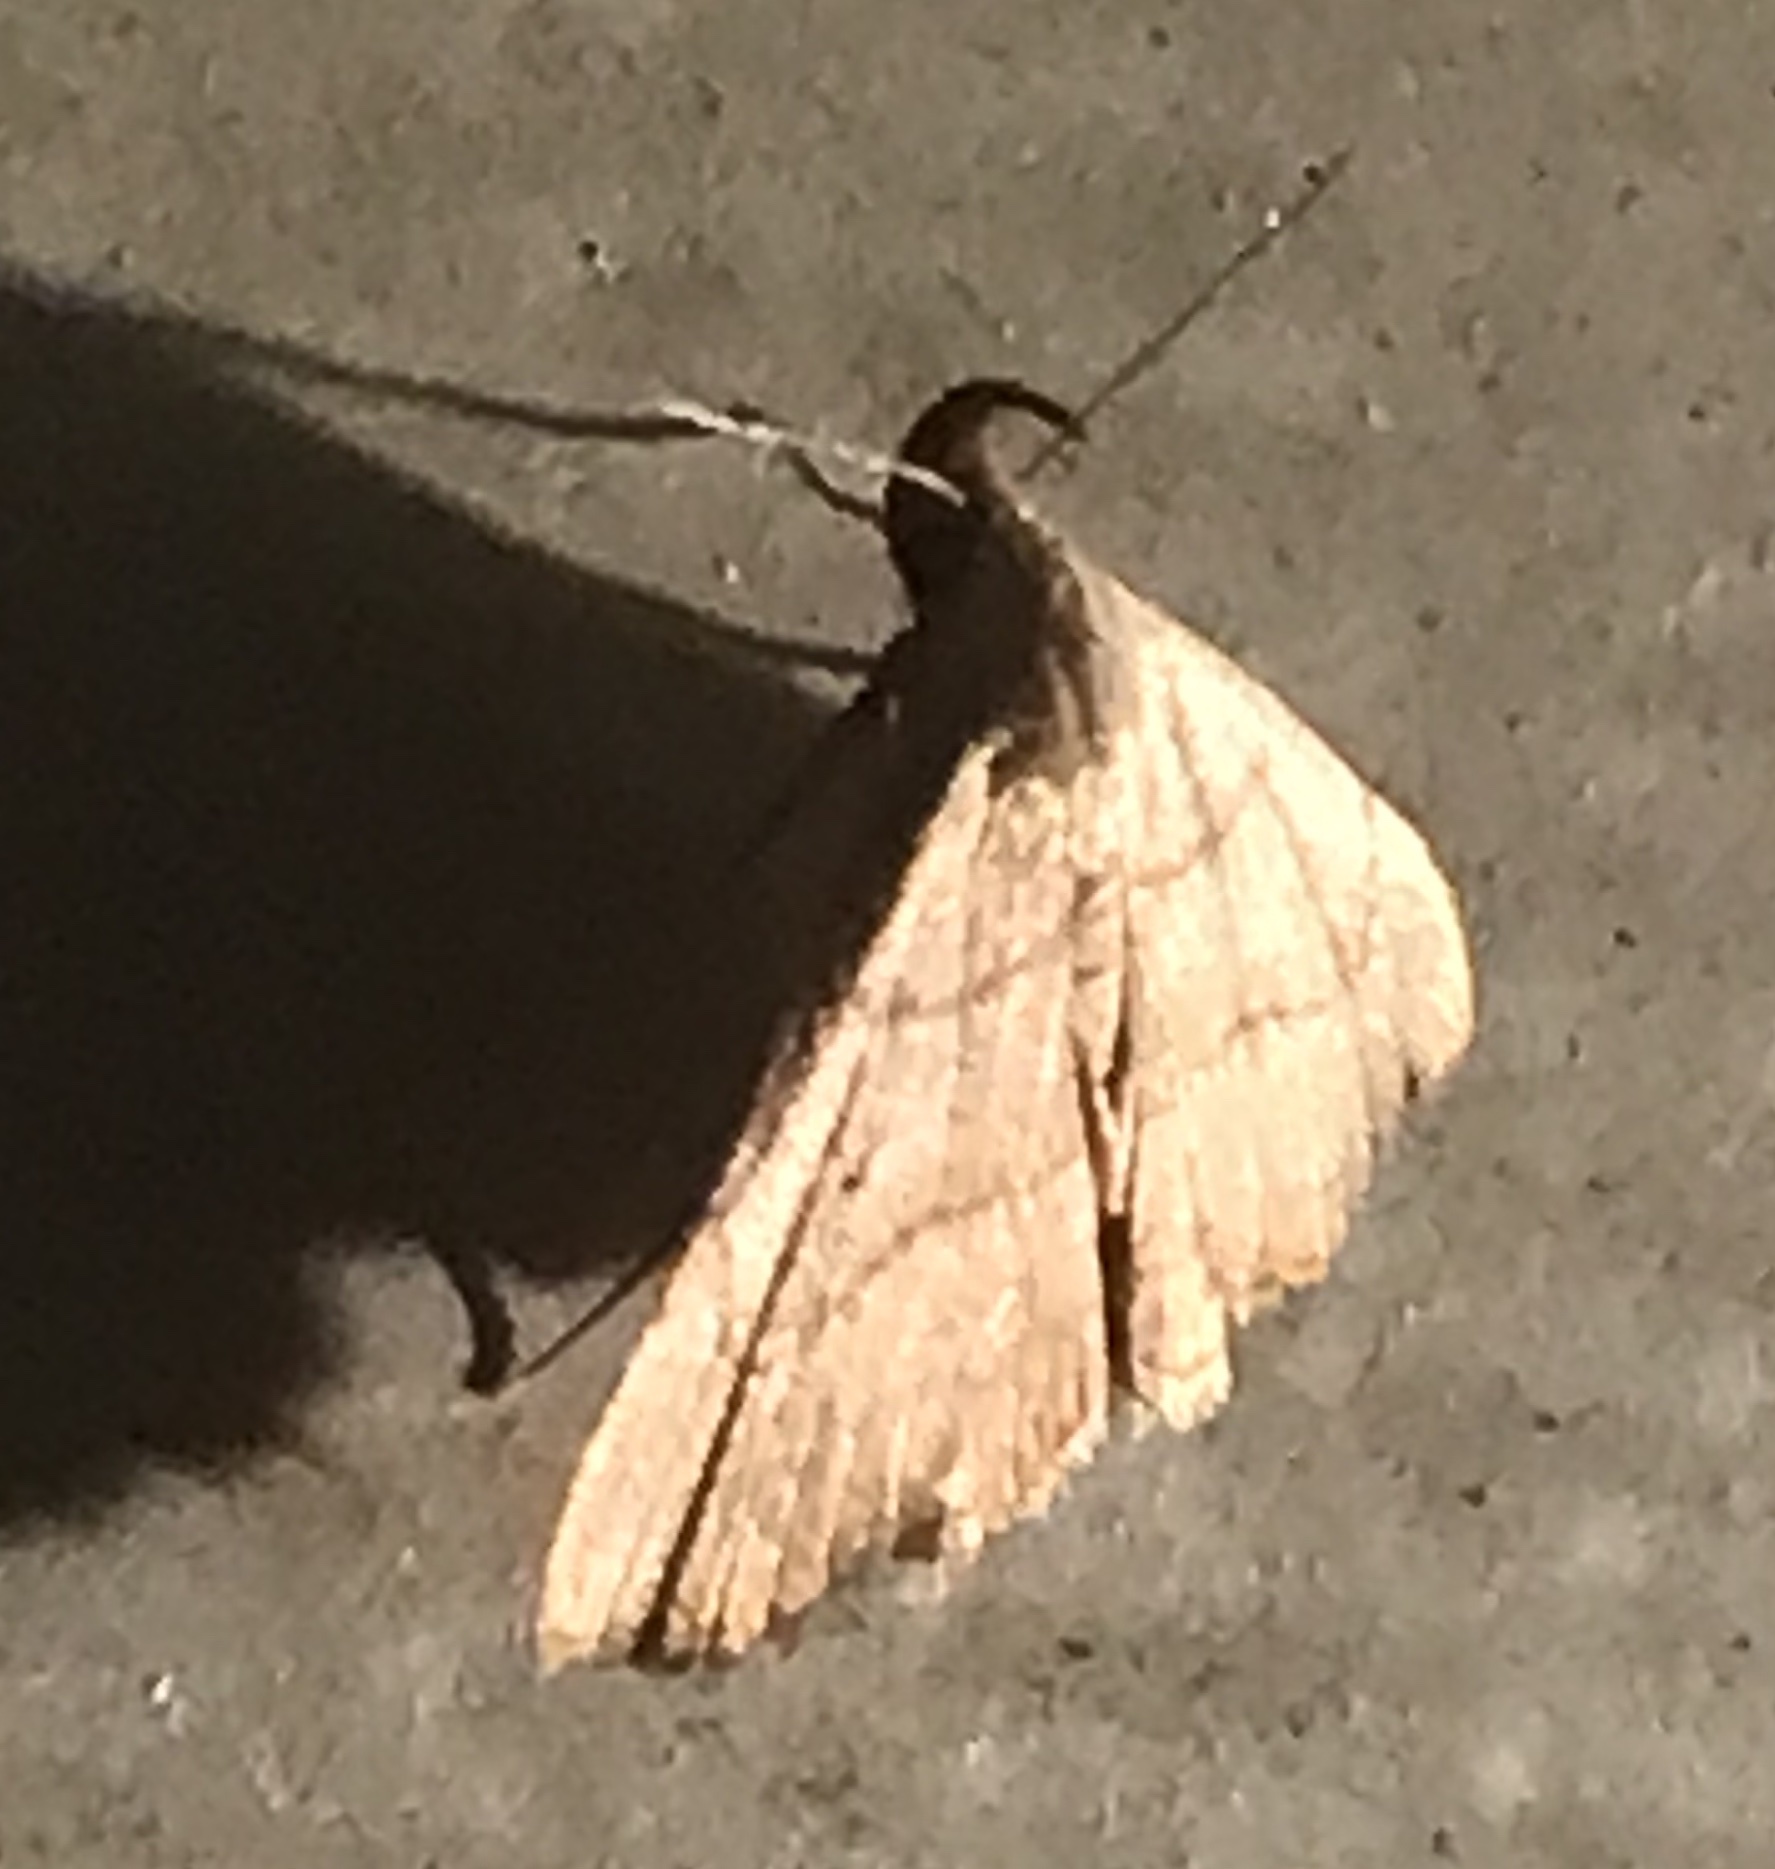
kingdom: Animalia
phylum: Arthropoda
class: Insecta
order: Lepidoptera
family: Erebidae
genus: Macrochilo
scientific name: Macrochilo litophora
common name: Brown-lined owlet
